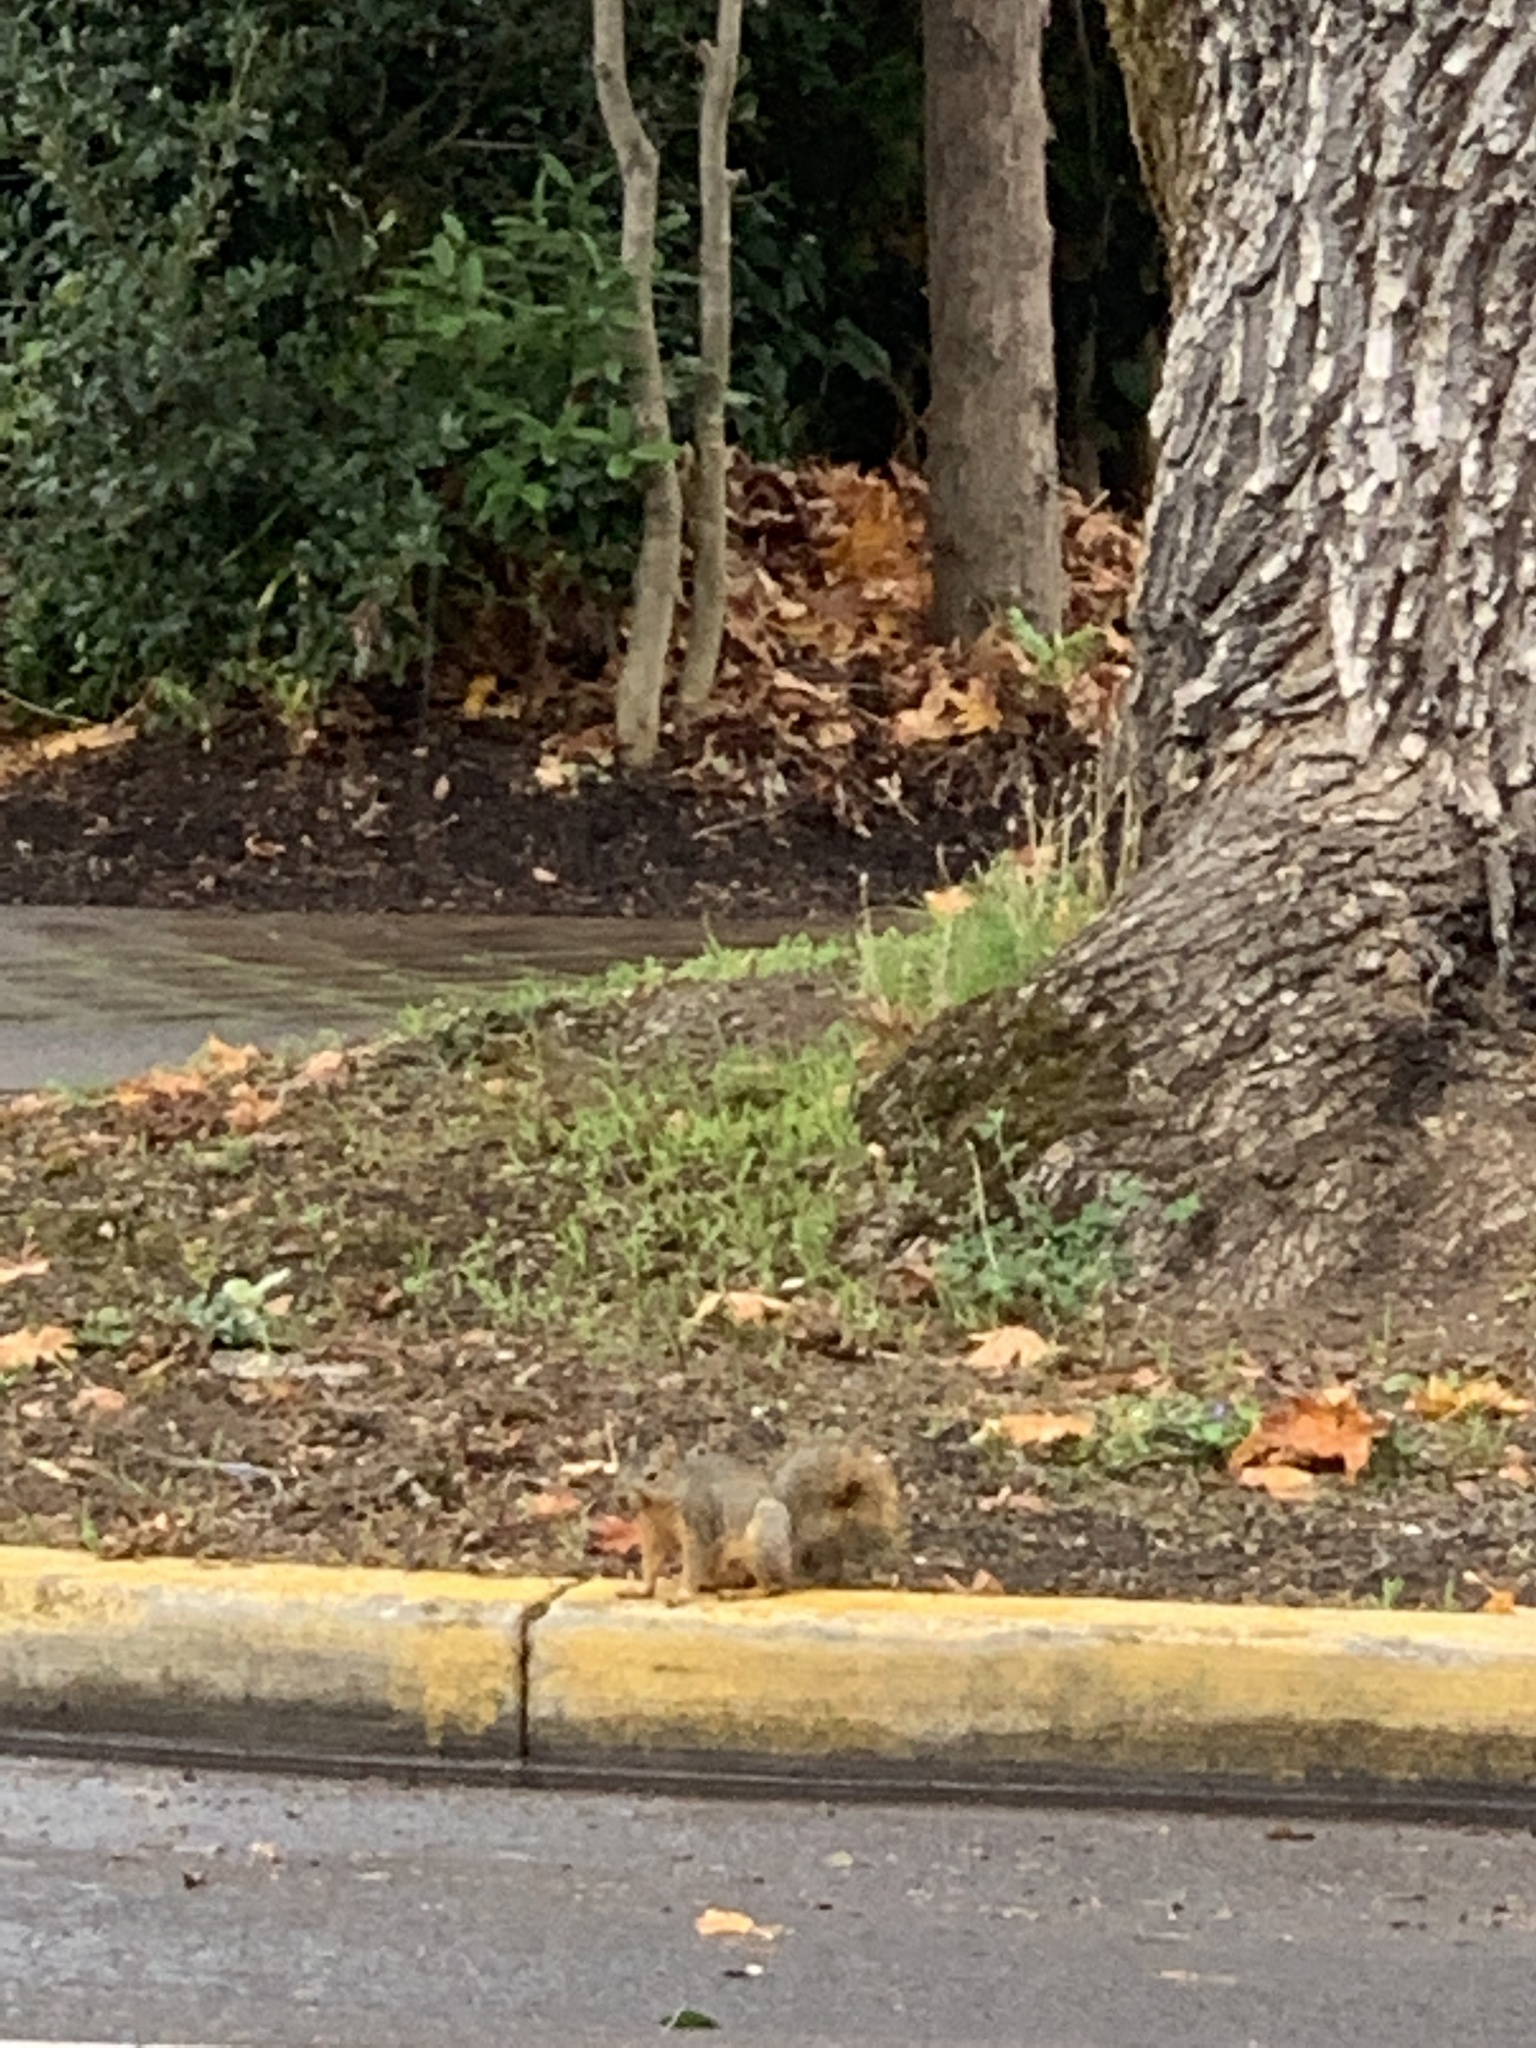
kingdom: Animalia
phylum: Chordata
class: Mammalia
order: Rodentia
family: Sciuridae
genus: Sciurus
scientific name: Sciurus niger
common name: Fox squirrel
